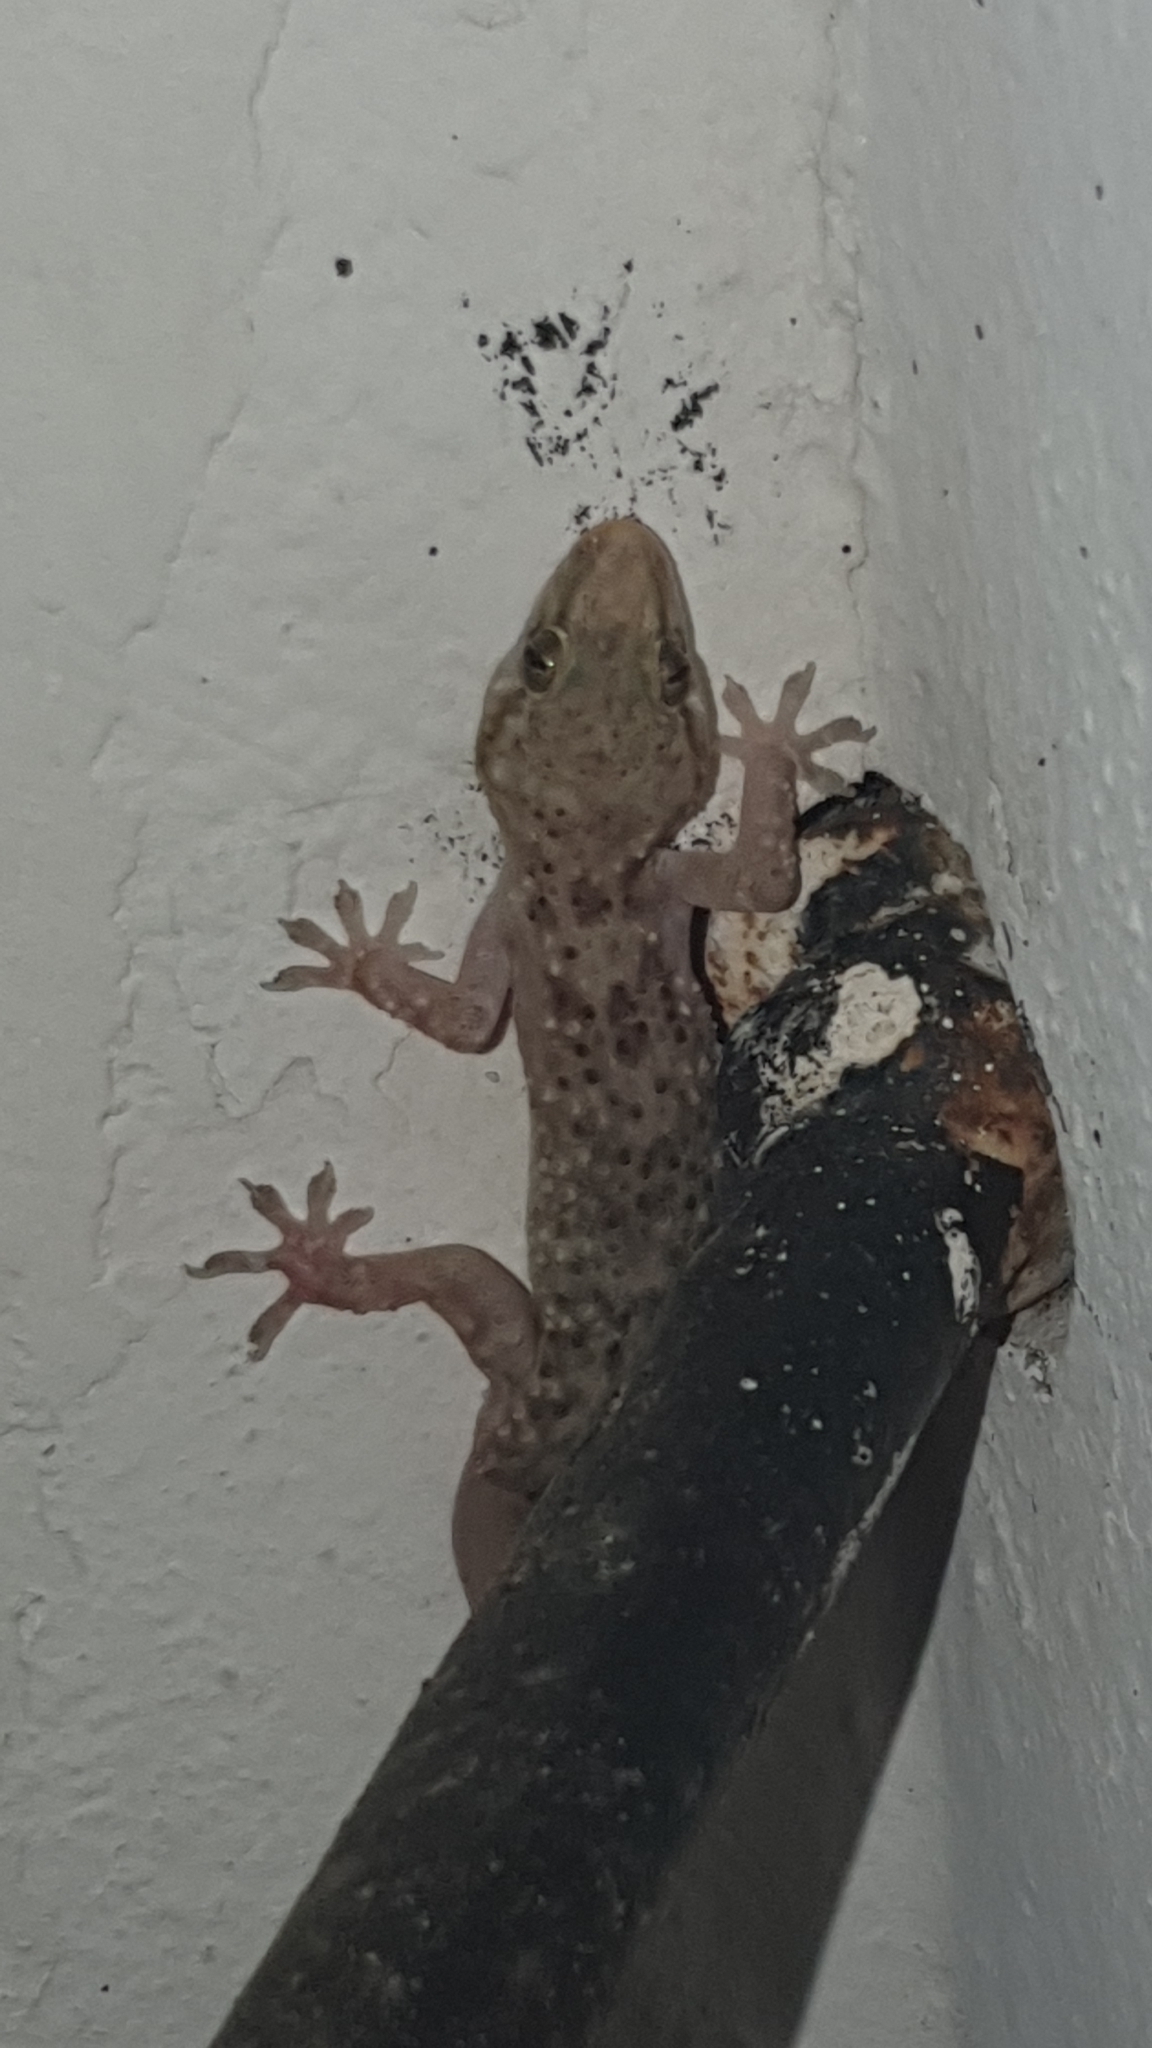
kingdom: Animalia
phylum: Chordata
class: Squamata
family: Gekkonidae
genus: Hemidactylus
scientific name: Hemidactylus turcicus
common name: Turkish gecko
